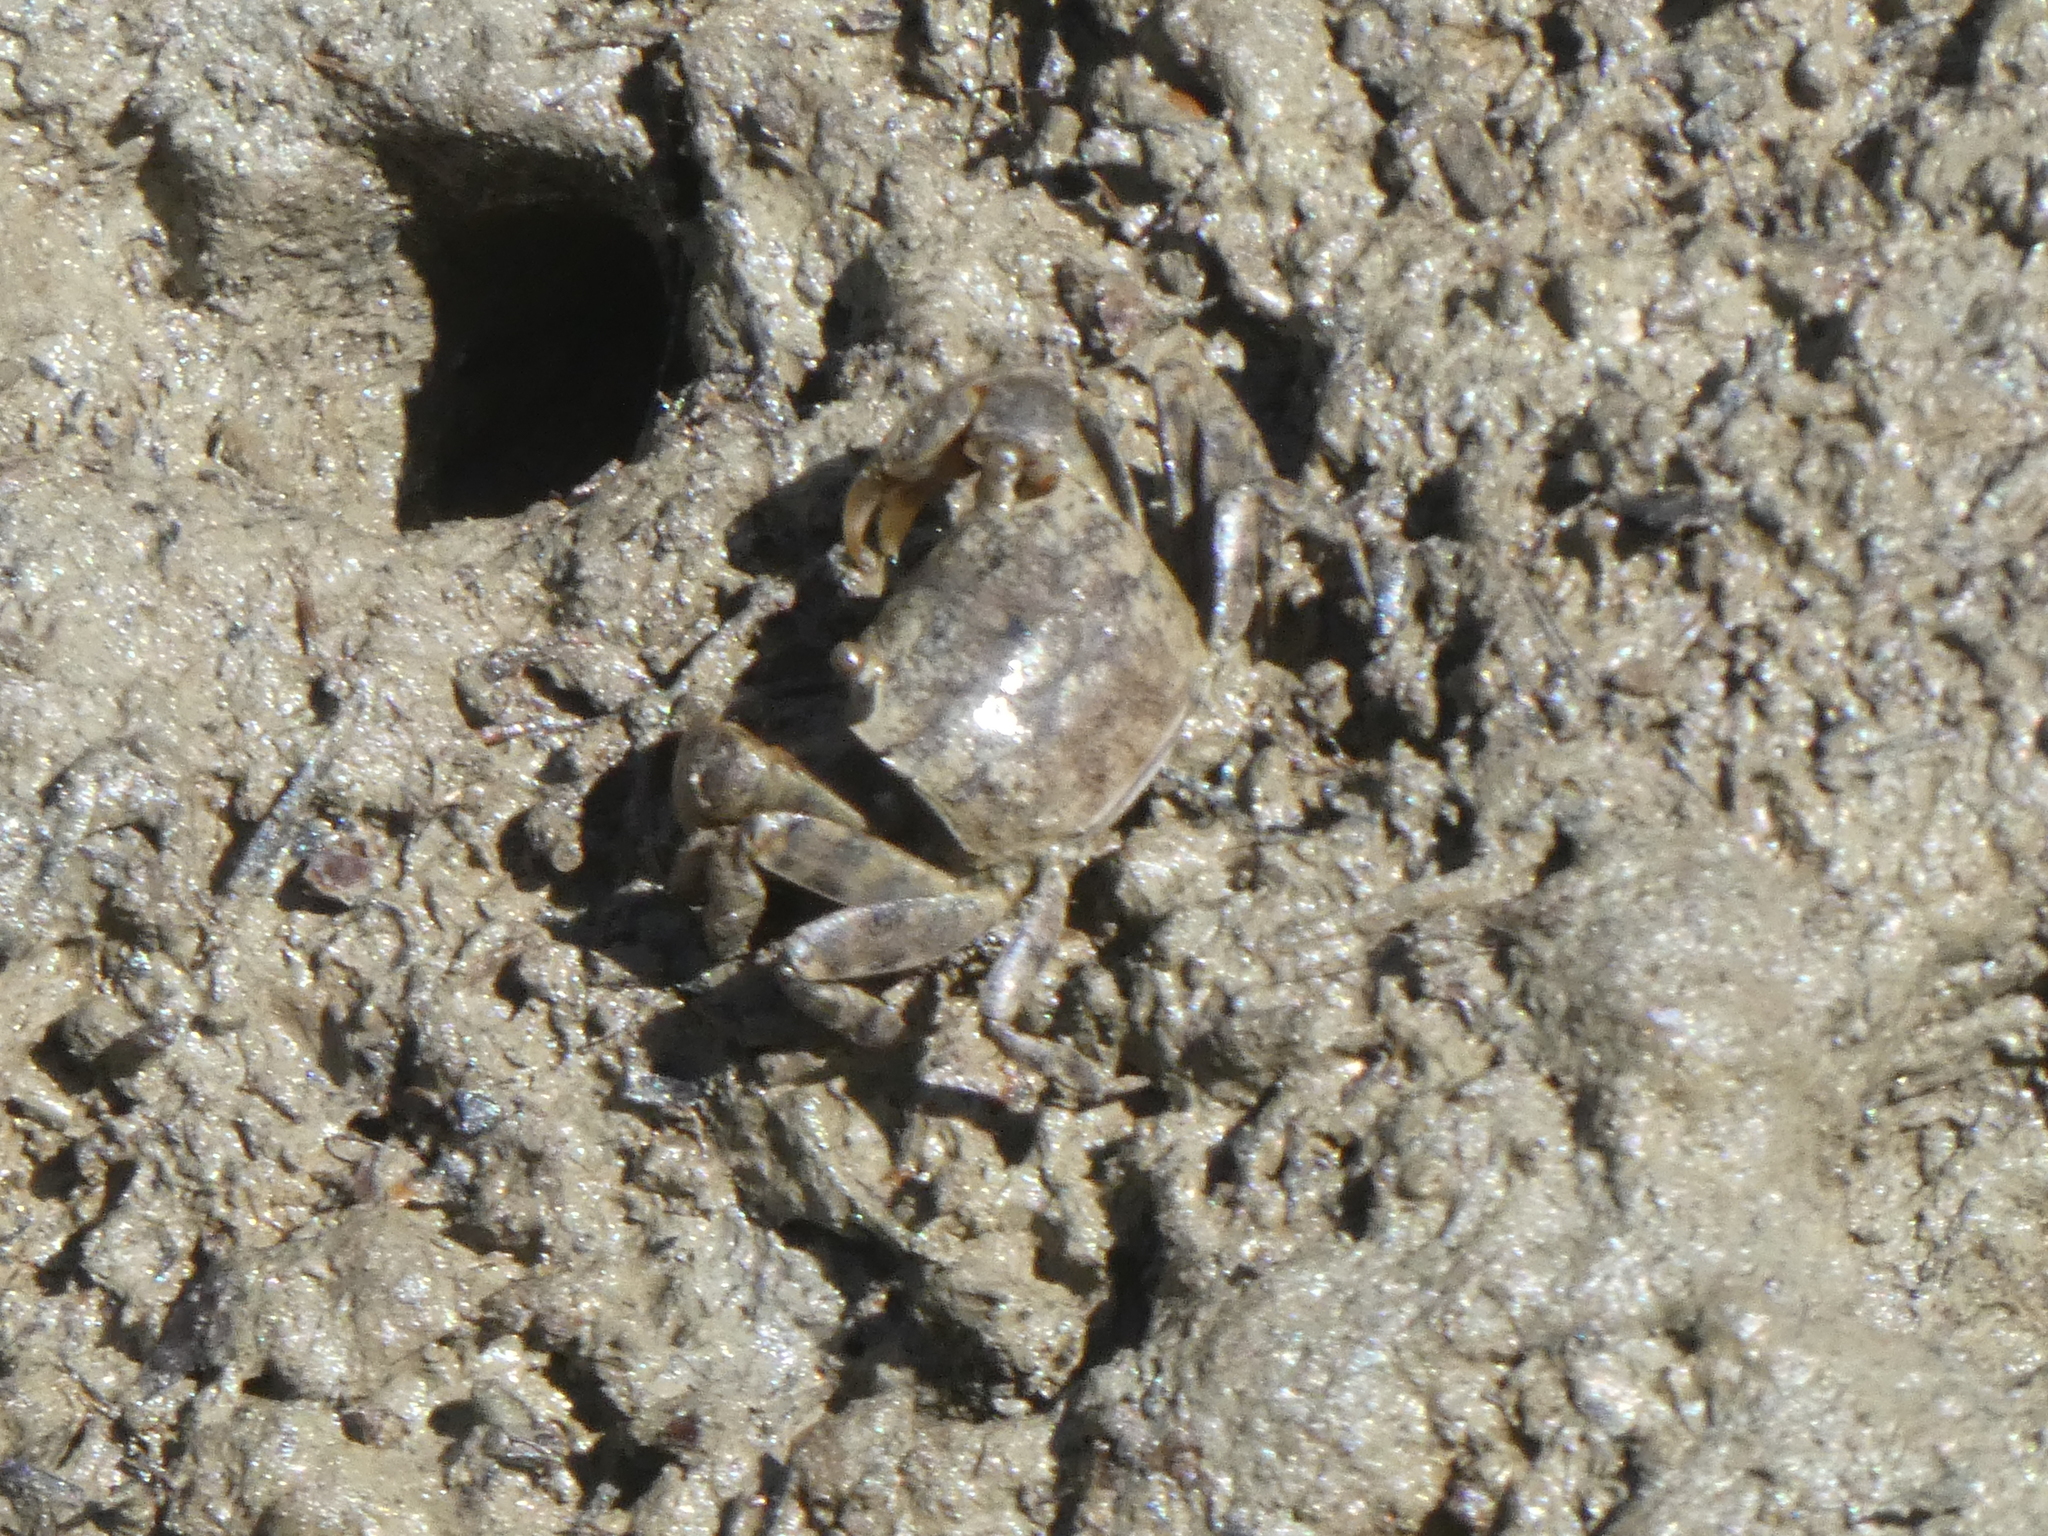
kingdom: Animalia
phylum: Arthropoda
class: Malacostraca
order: Decapoda
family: Varunidae
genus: Austrohelice
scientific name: Austrohelice crassa
